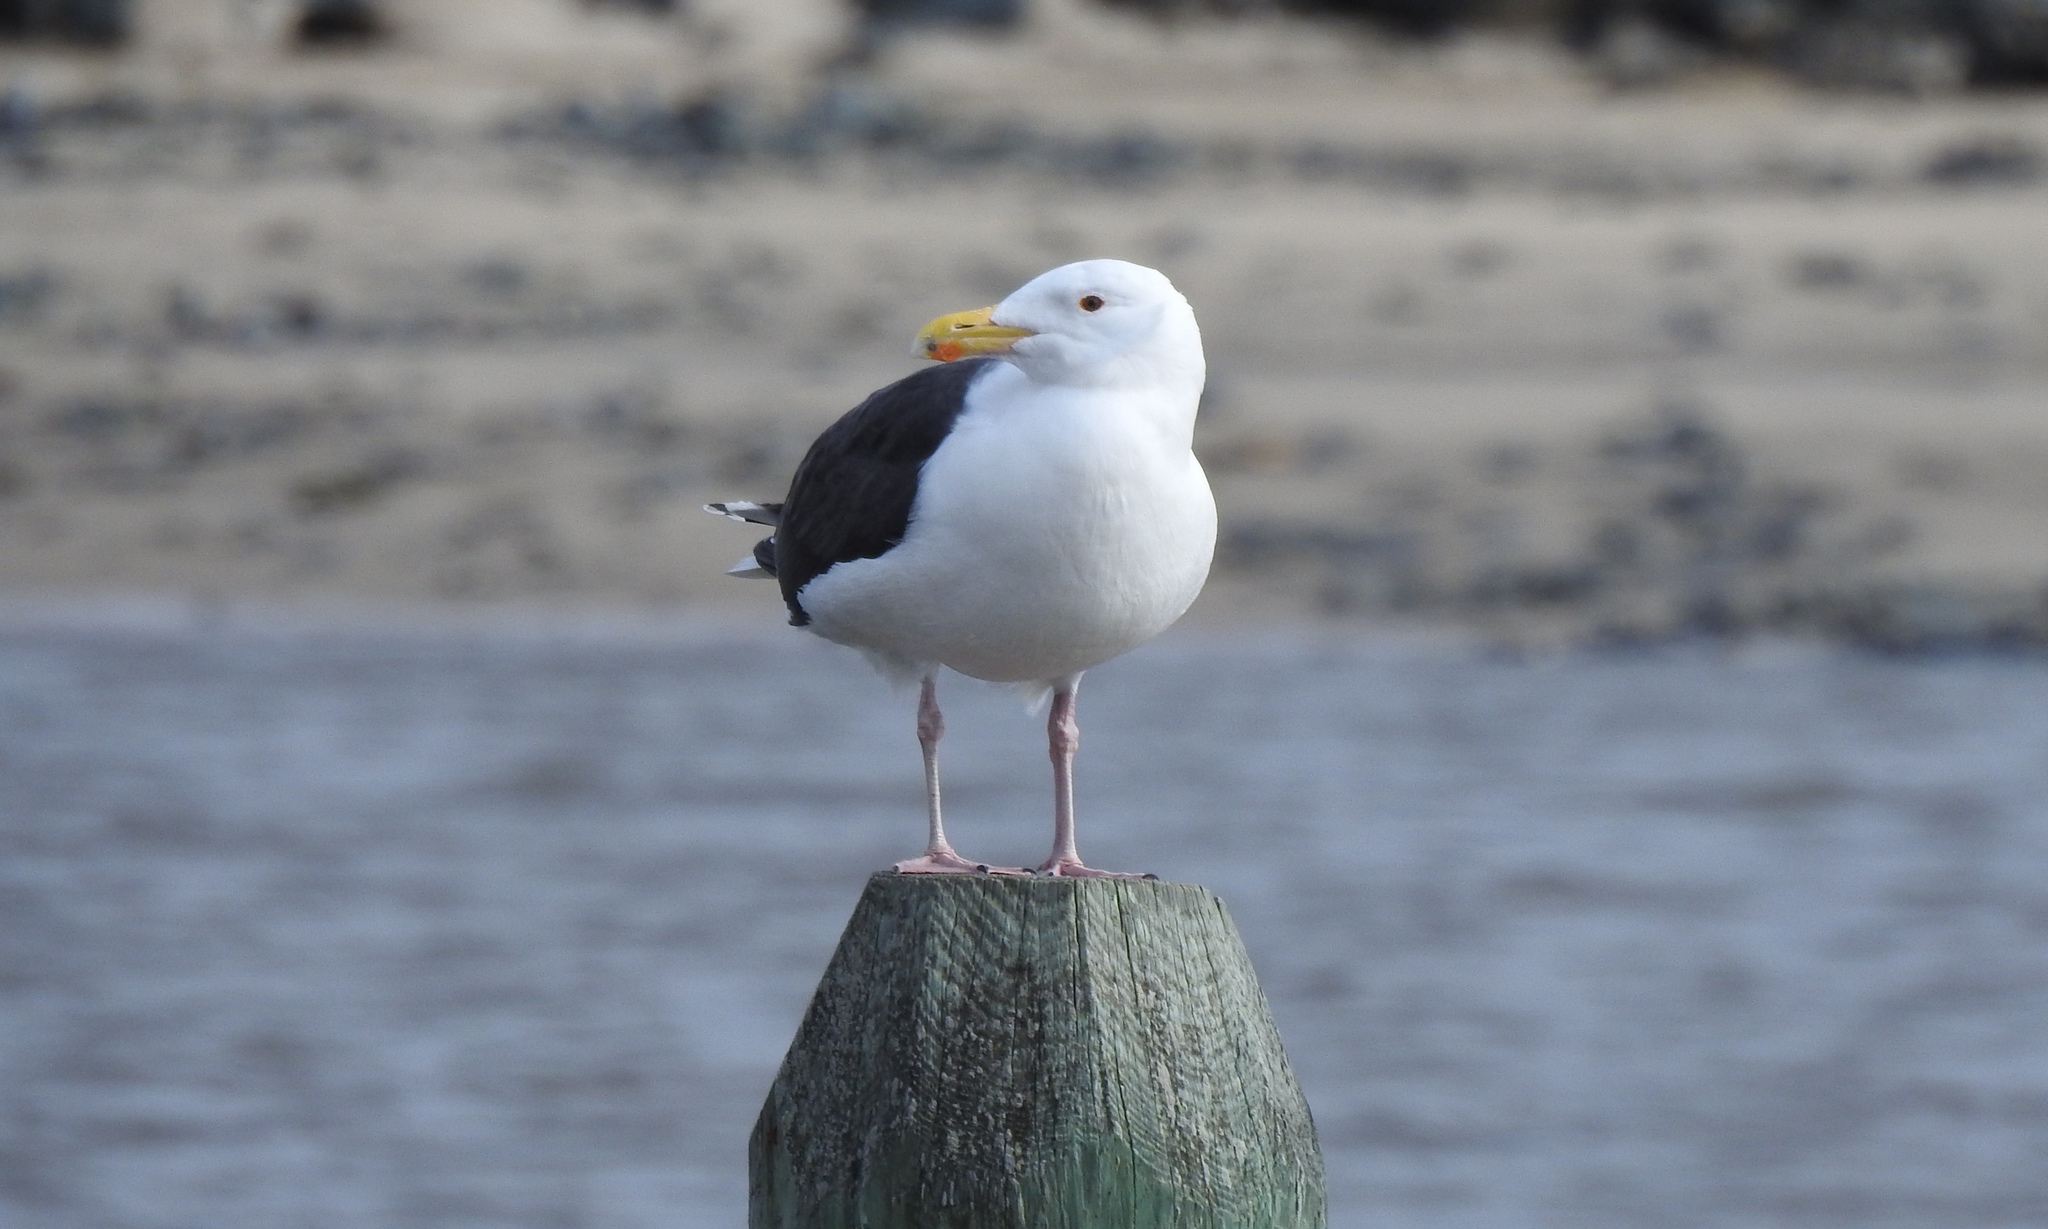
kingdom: Animalia
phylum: Chordata
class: Aves
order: Charadriiformes
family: Laridae
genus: Larus
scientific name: Larus marinus
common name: Great black-backed gull
